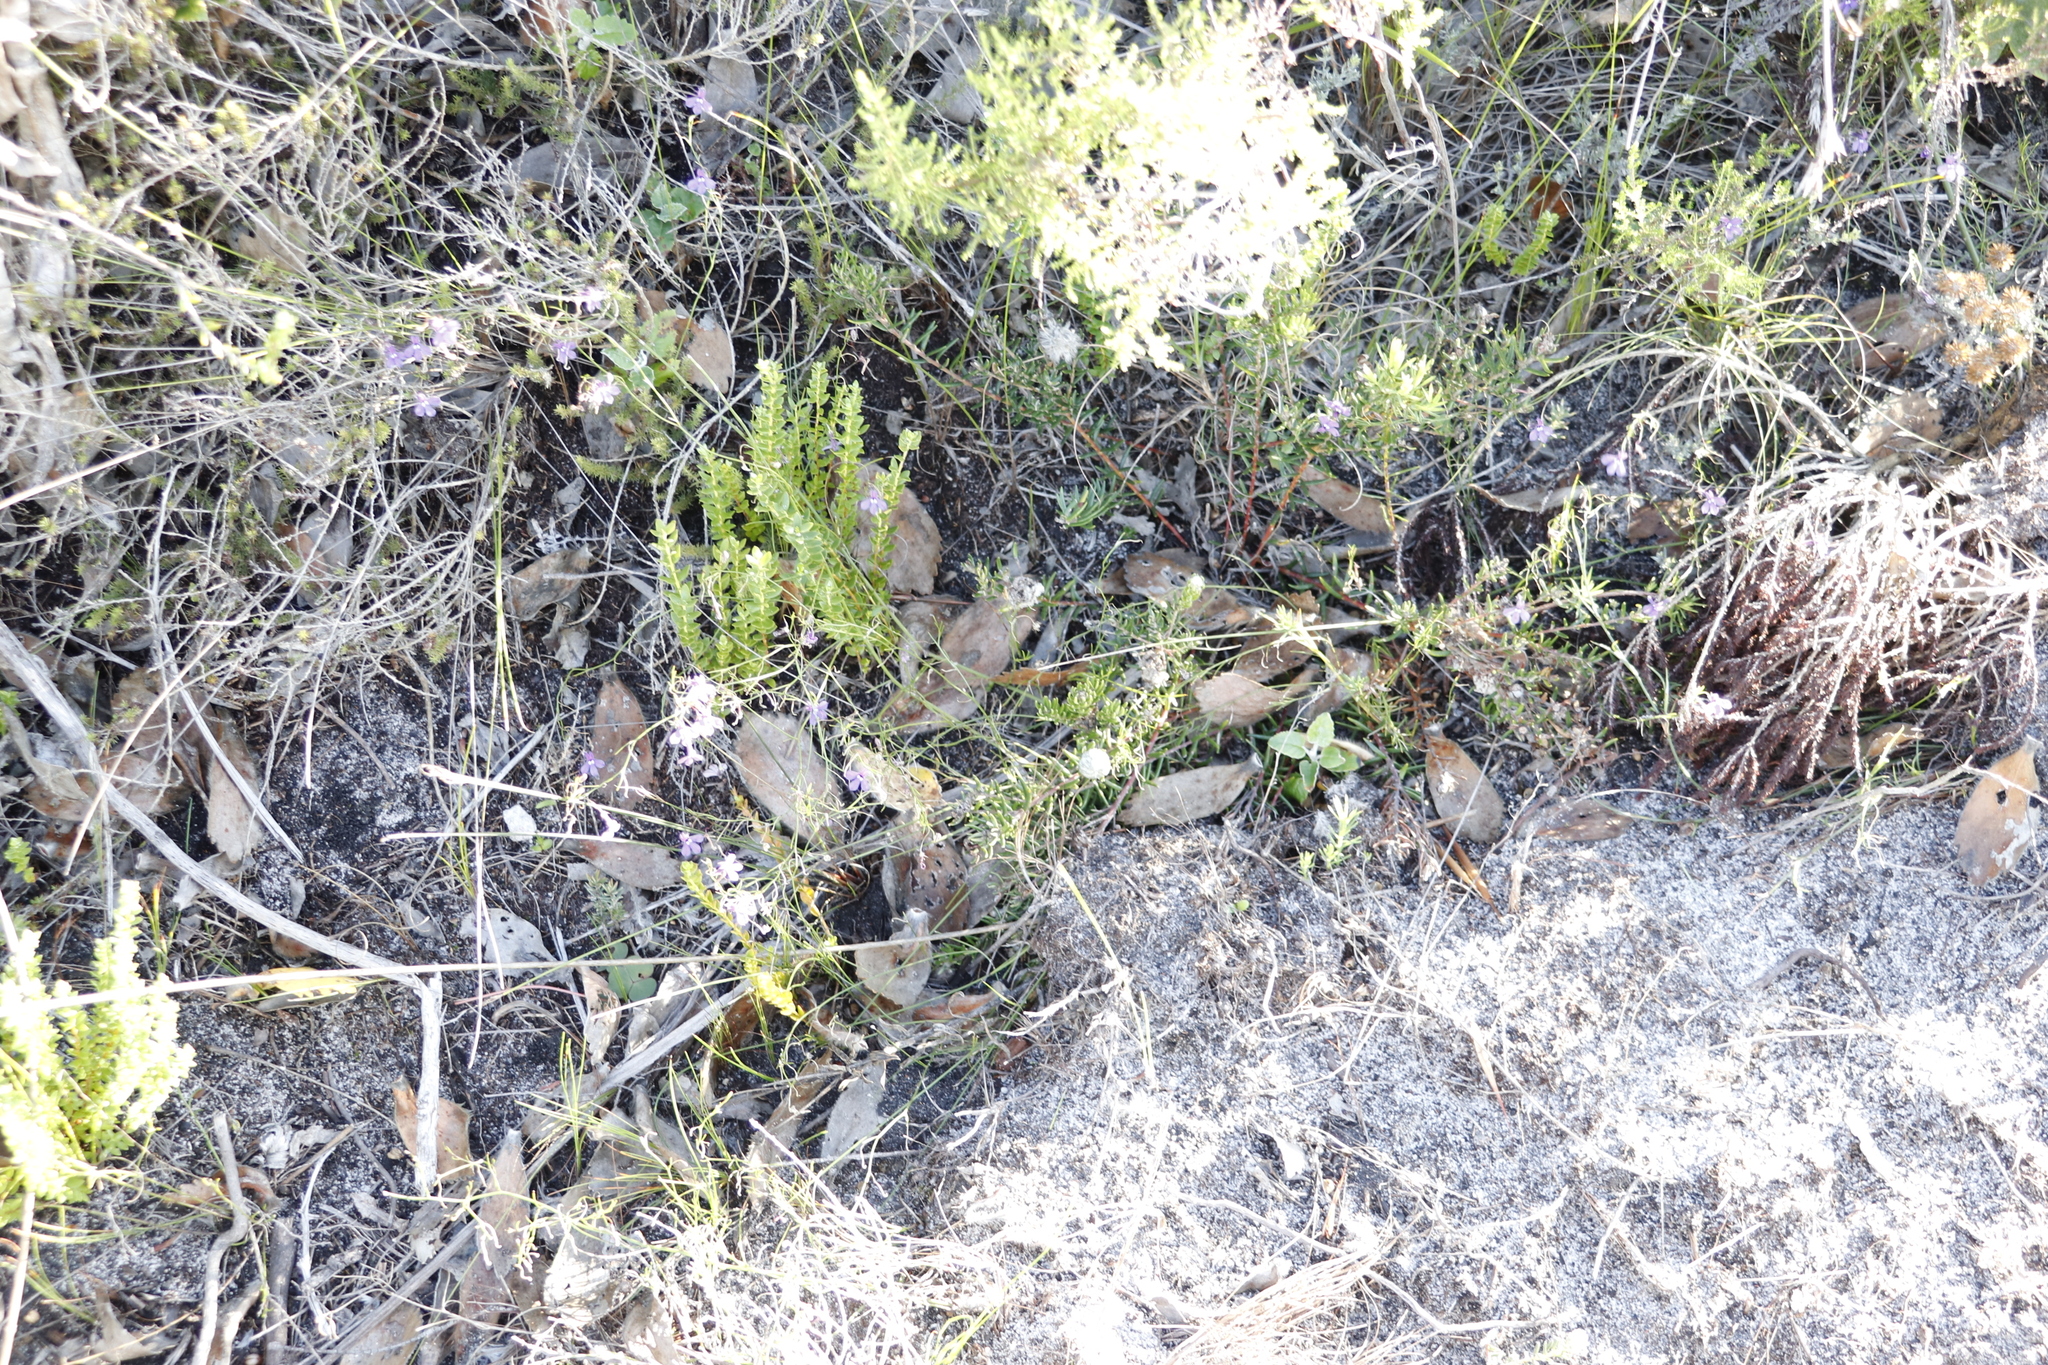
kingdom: Plantae
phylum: Tracheophyta
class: Magnoliopsida
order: Asterales
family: Campanulaceae
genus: Lobelia
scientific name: Lobelia setacea
